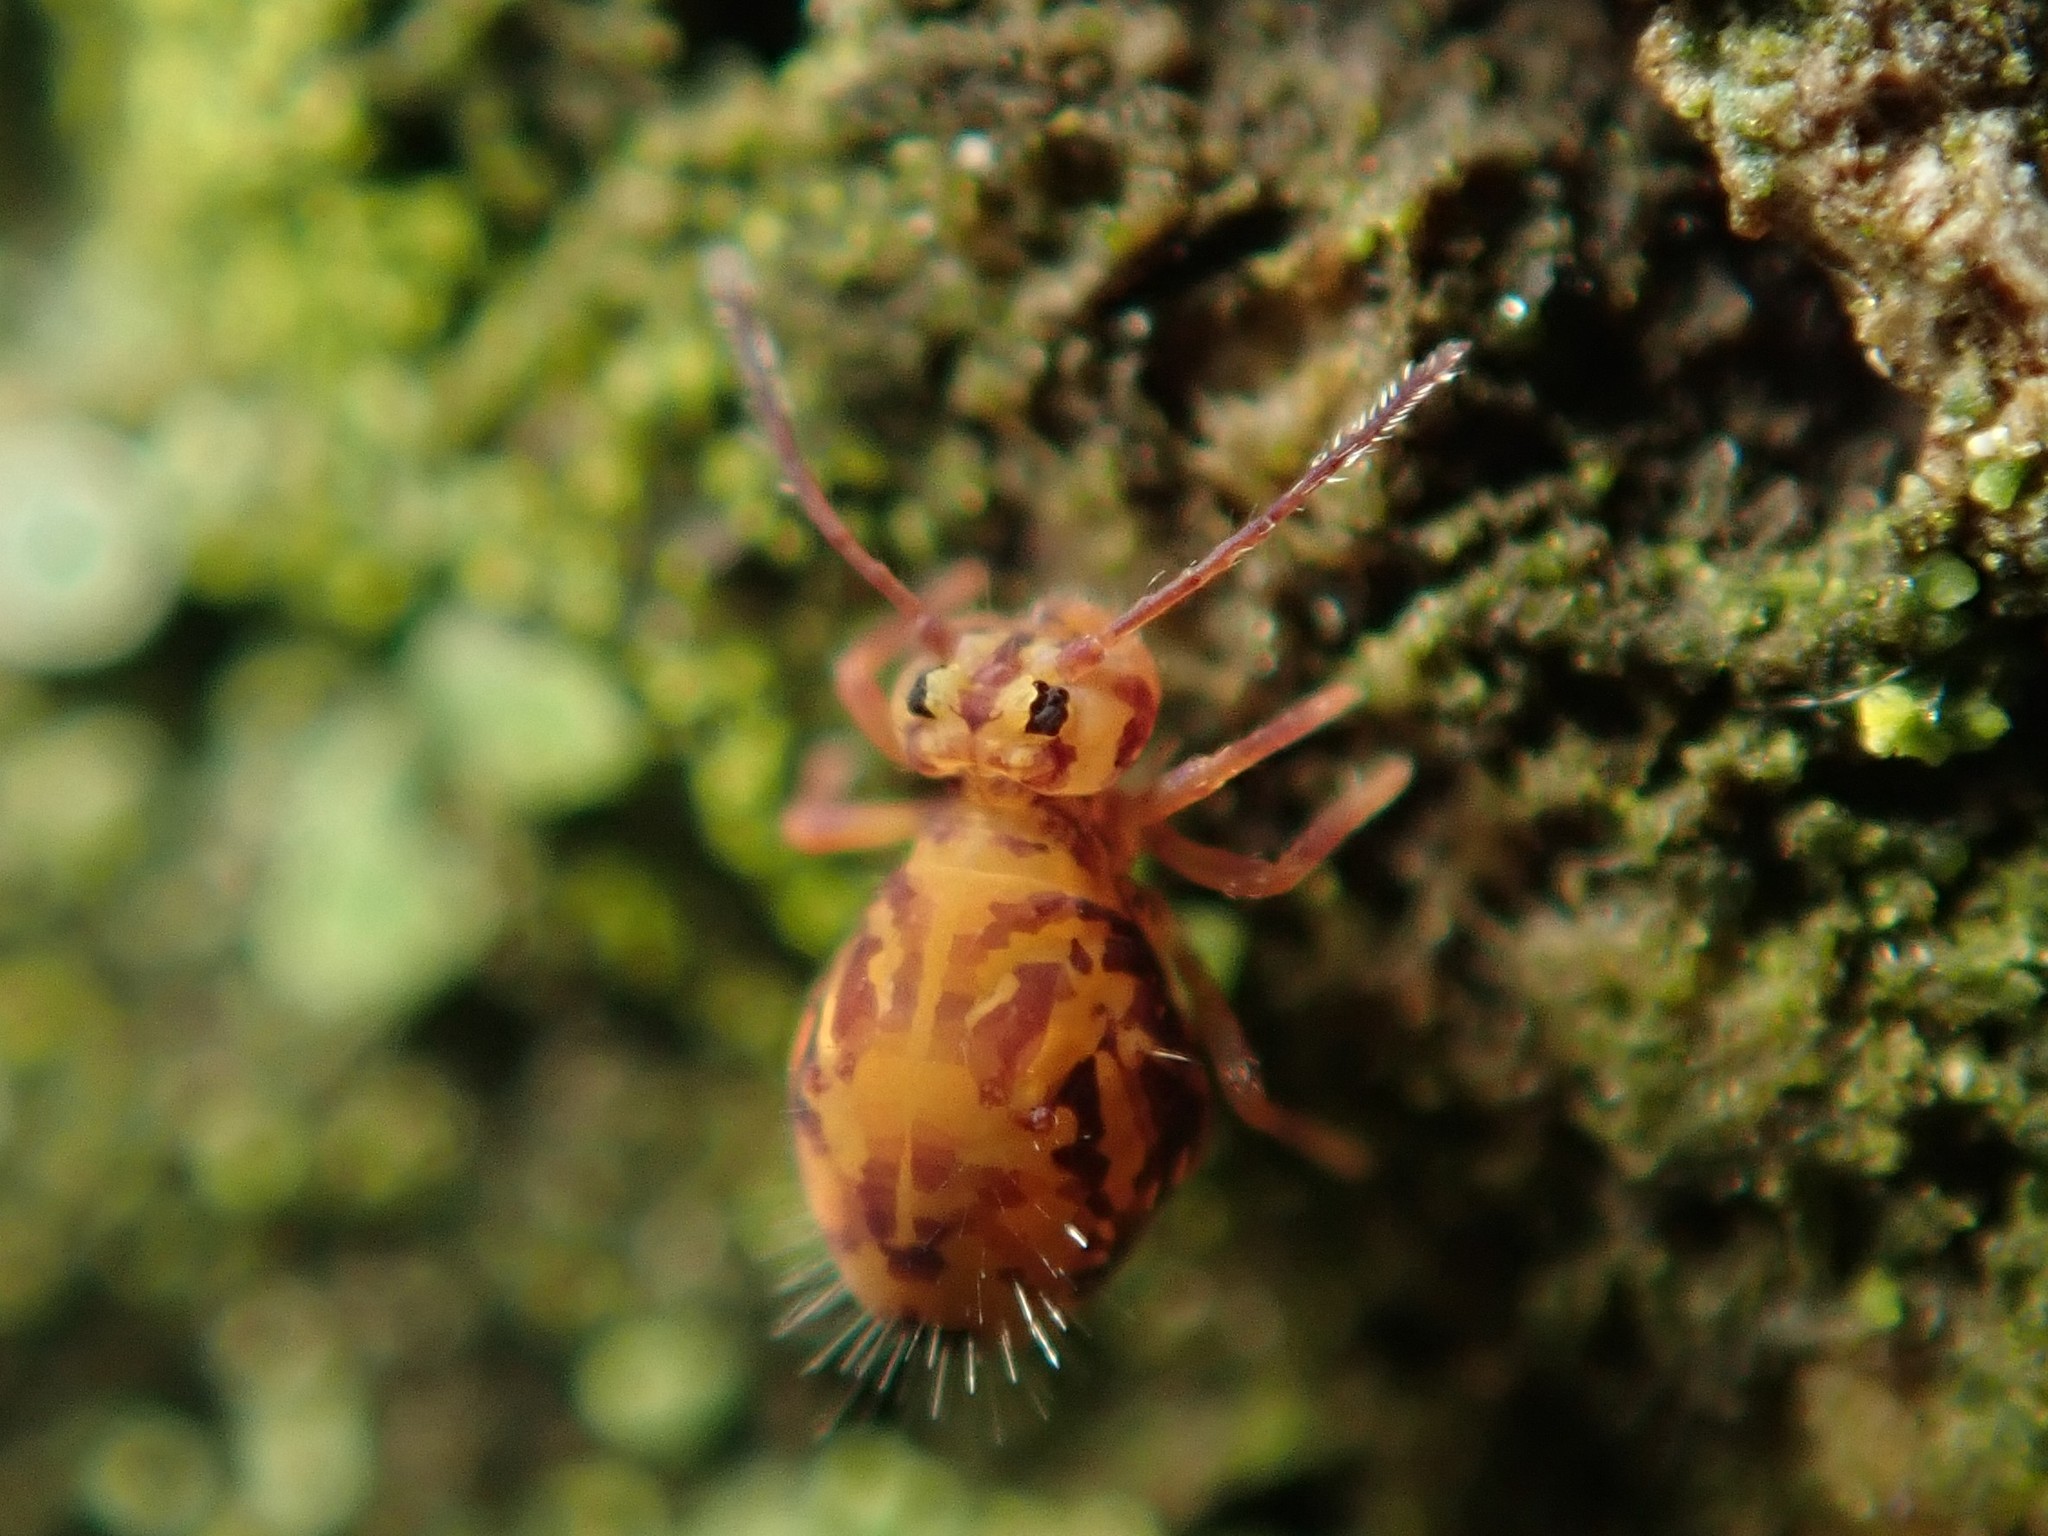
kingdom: Animalia
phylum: Arthropoda
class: Collembola
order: Symphypleona
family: Dicyrtomidae
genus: Dicyrtomina
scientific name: Dicyrtomina ornata
